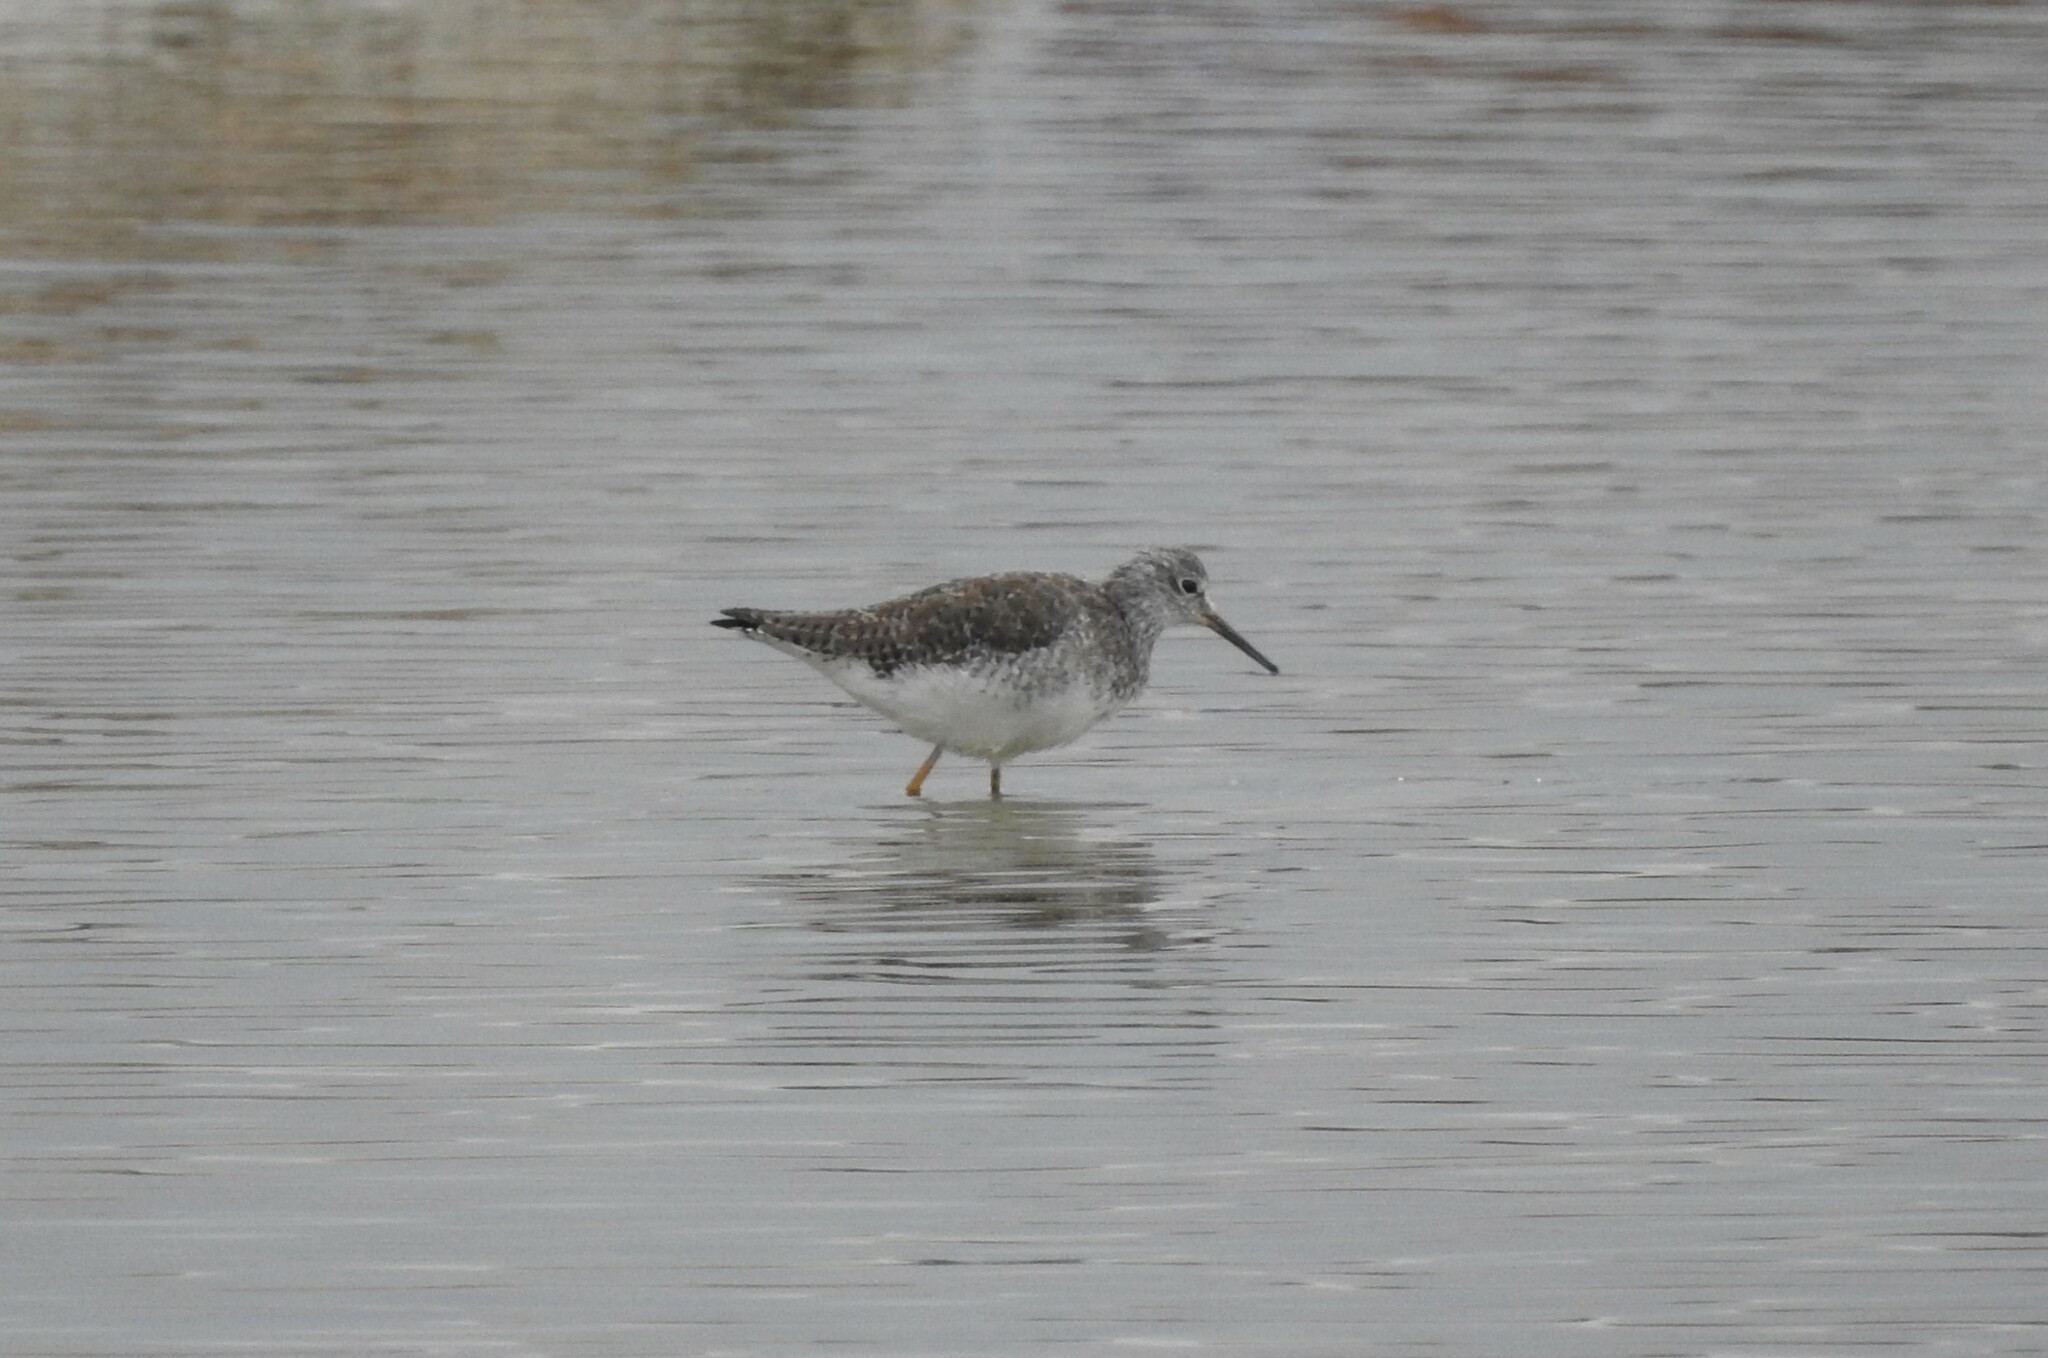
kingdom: Animalia
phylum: Chordata
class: Aves
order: Charadriiformes
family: Scolopacidae
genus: Tringa
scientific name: Tringa flavipes
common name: Lesser yellowlegs
